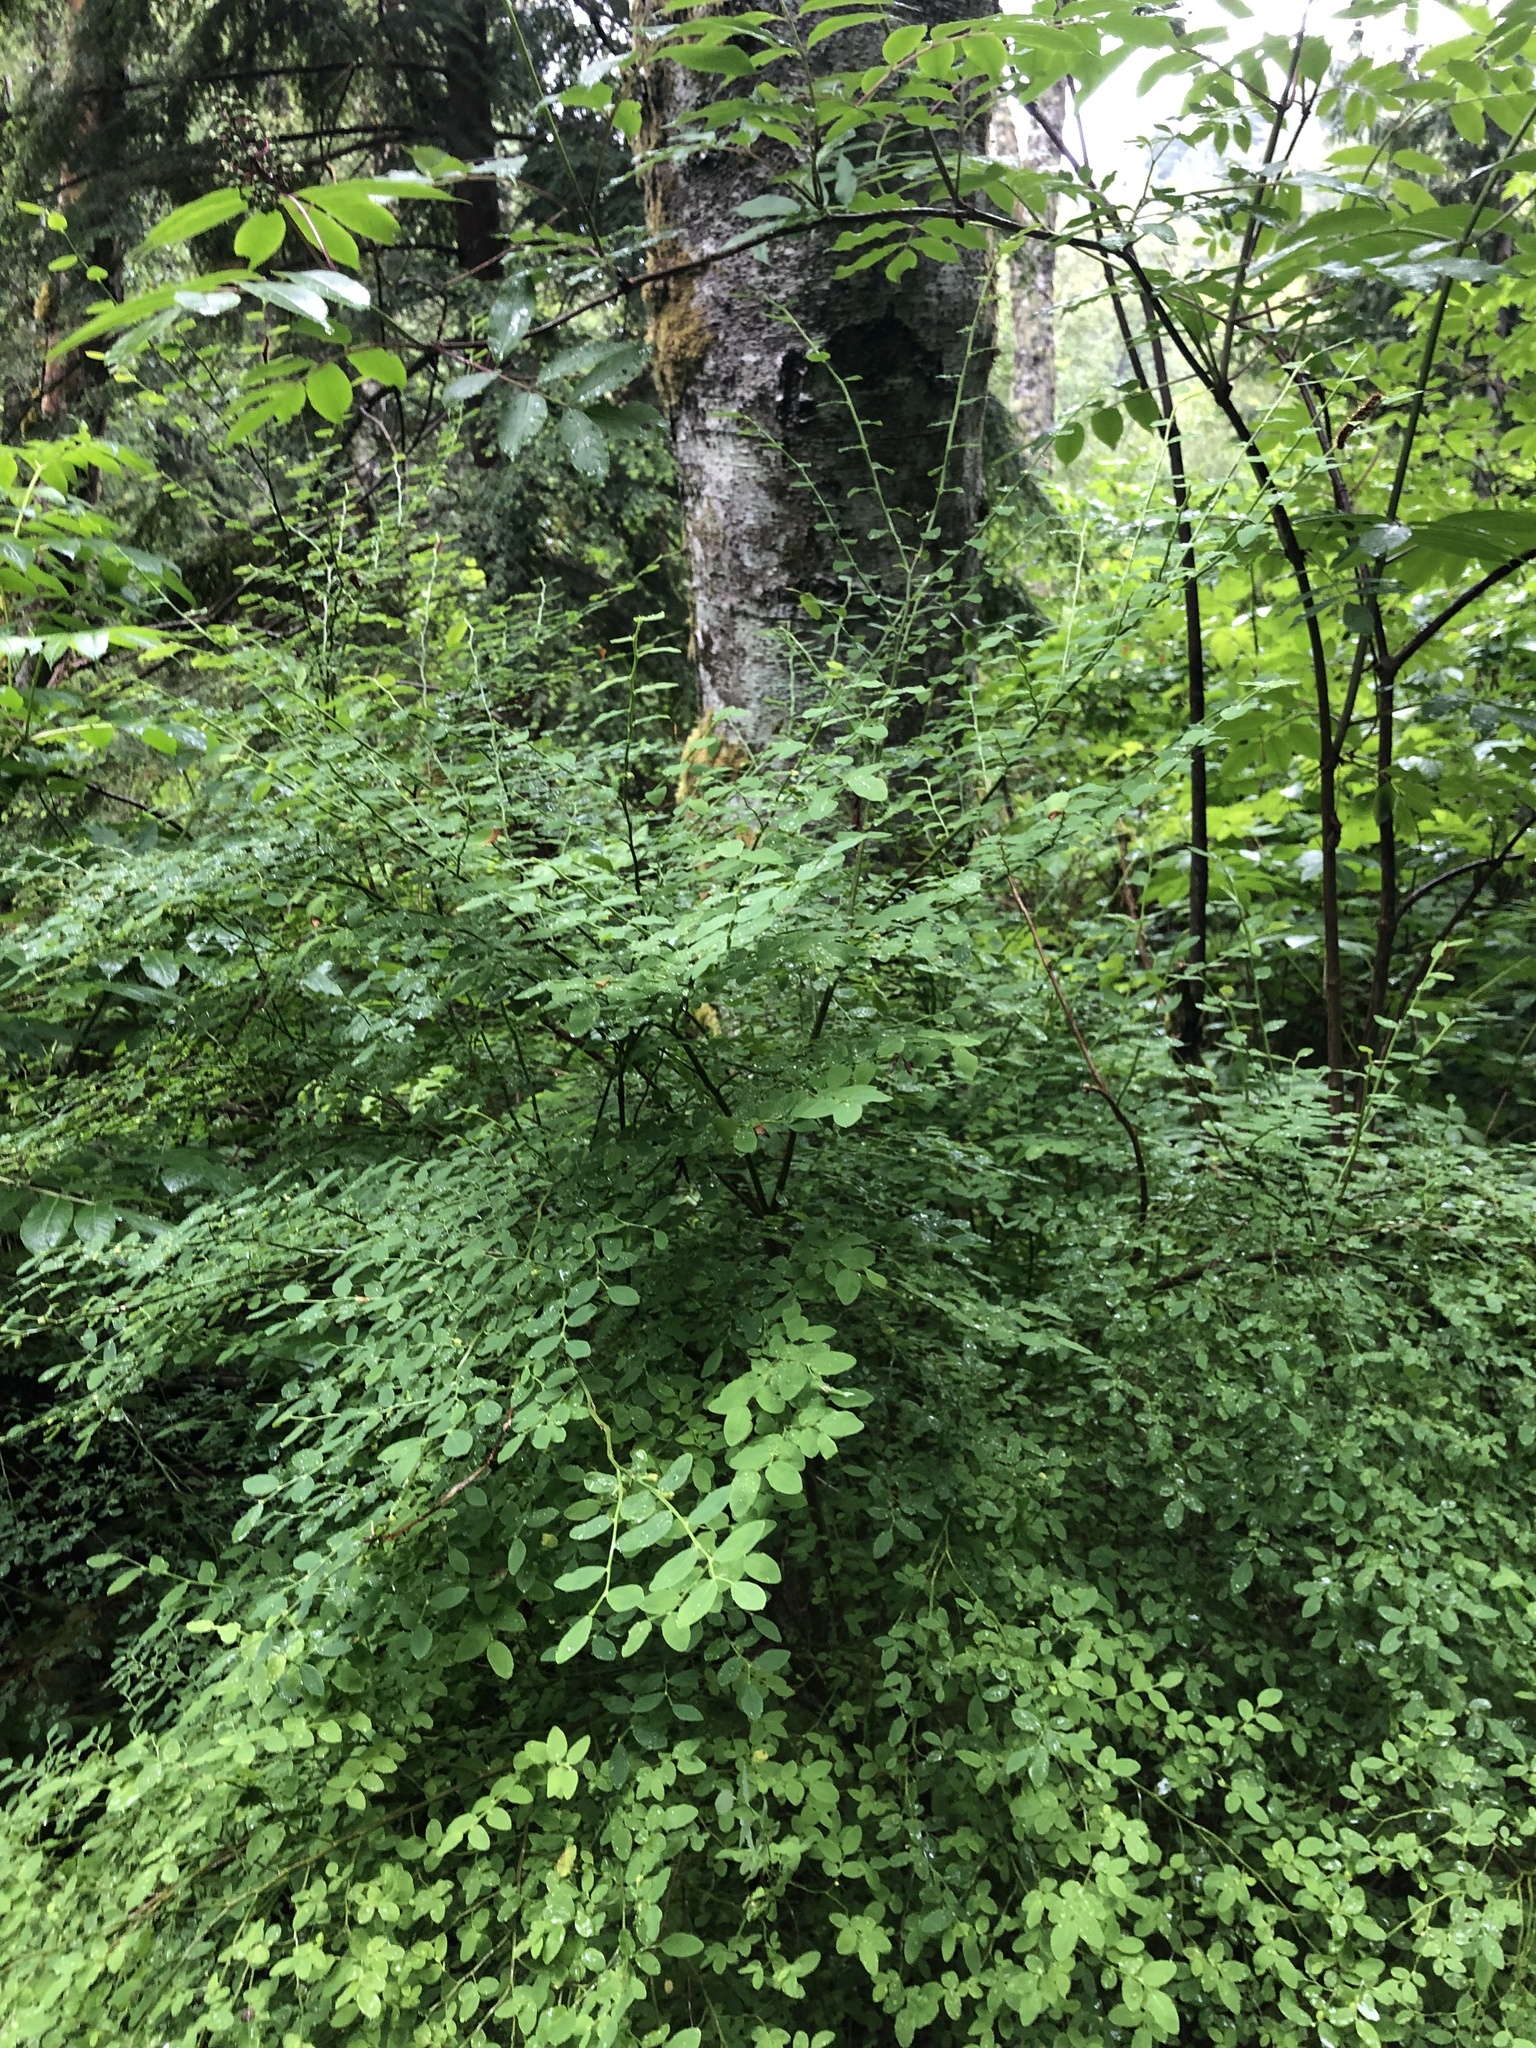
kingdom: Plantae
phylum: Tracheophyta
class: Magnoliopsida
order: Ericales
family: Ericaceae
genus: Vaccinium
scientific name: Vaccinium parvifolium
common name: Red-huckleberry
